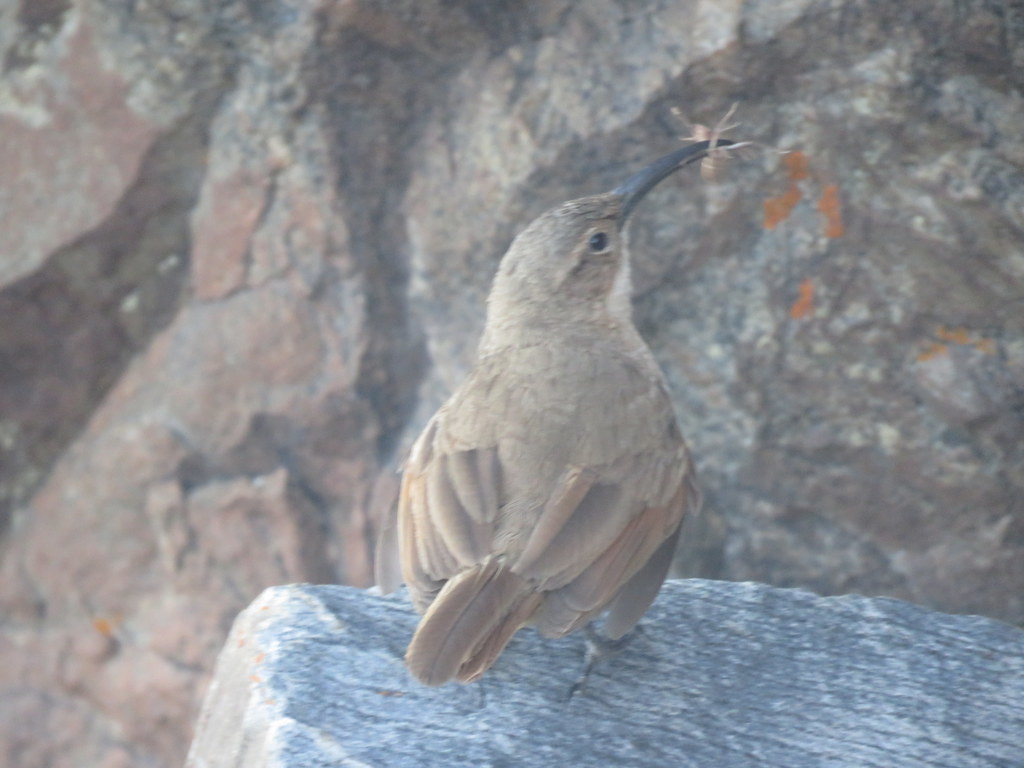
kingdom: Animalia
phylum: Chordata
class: Aves
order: Passeriformes
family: Furnariidae
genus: Upucerthia
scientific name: Upucerthia validirostris
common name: Buff-breasted earthcreeper
